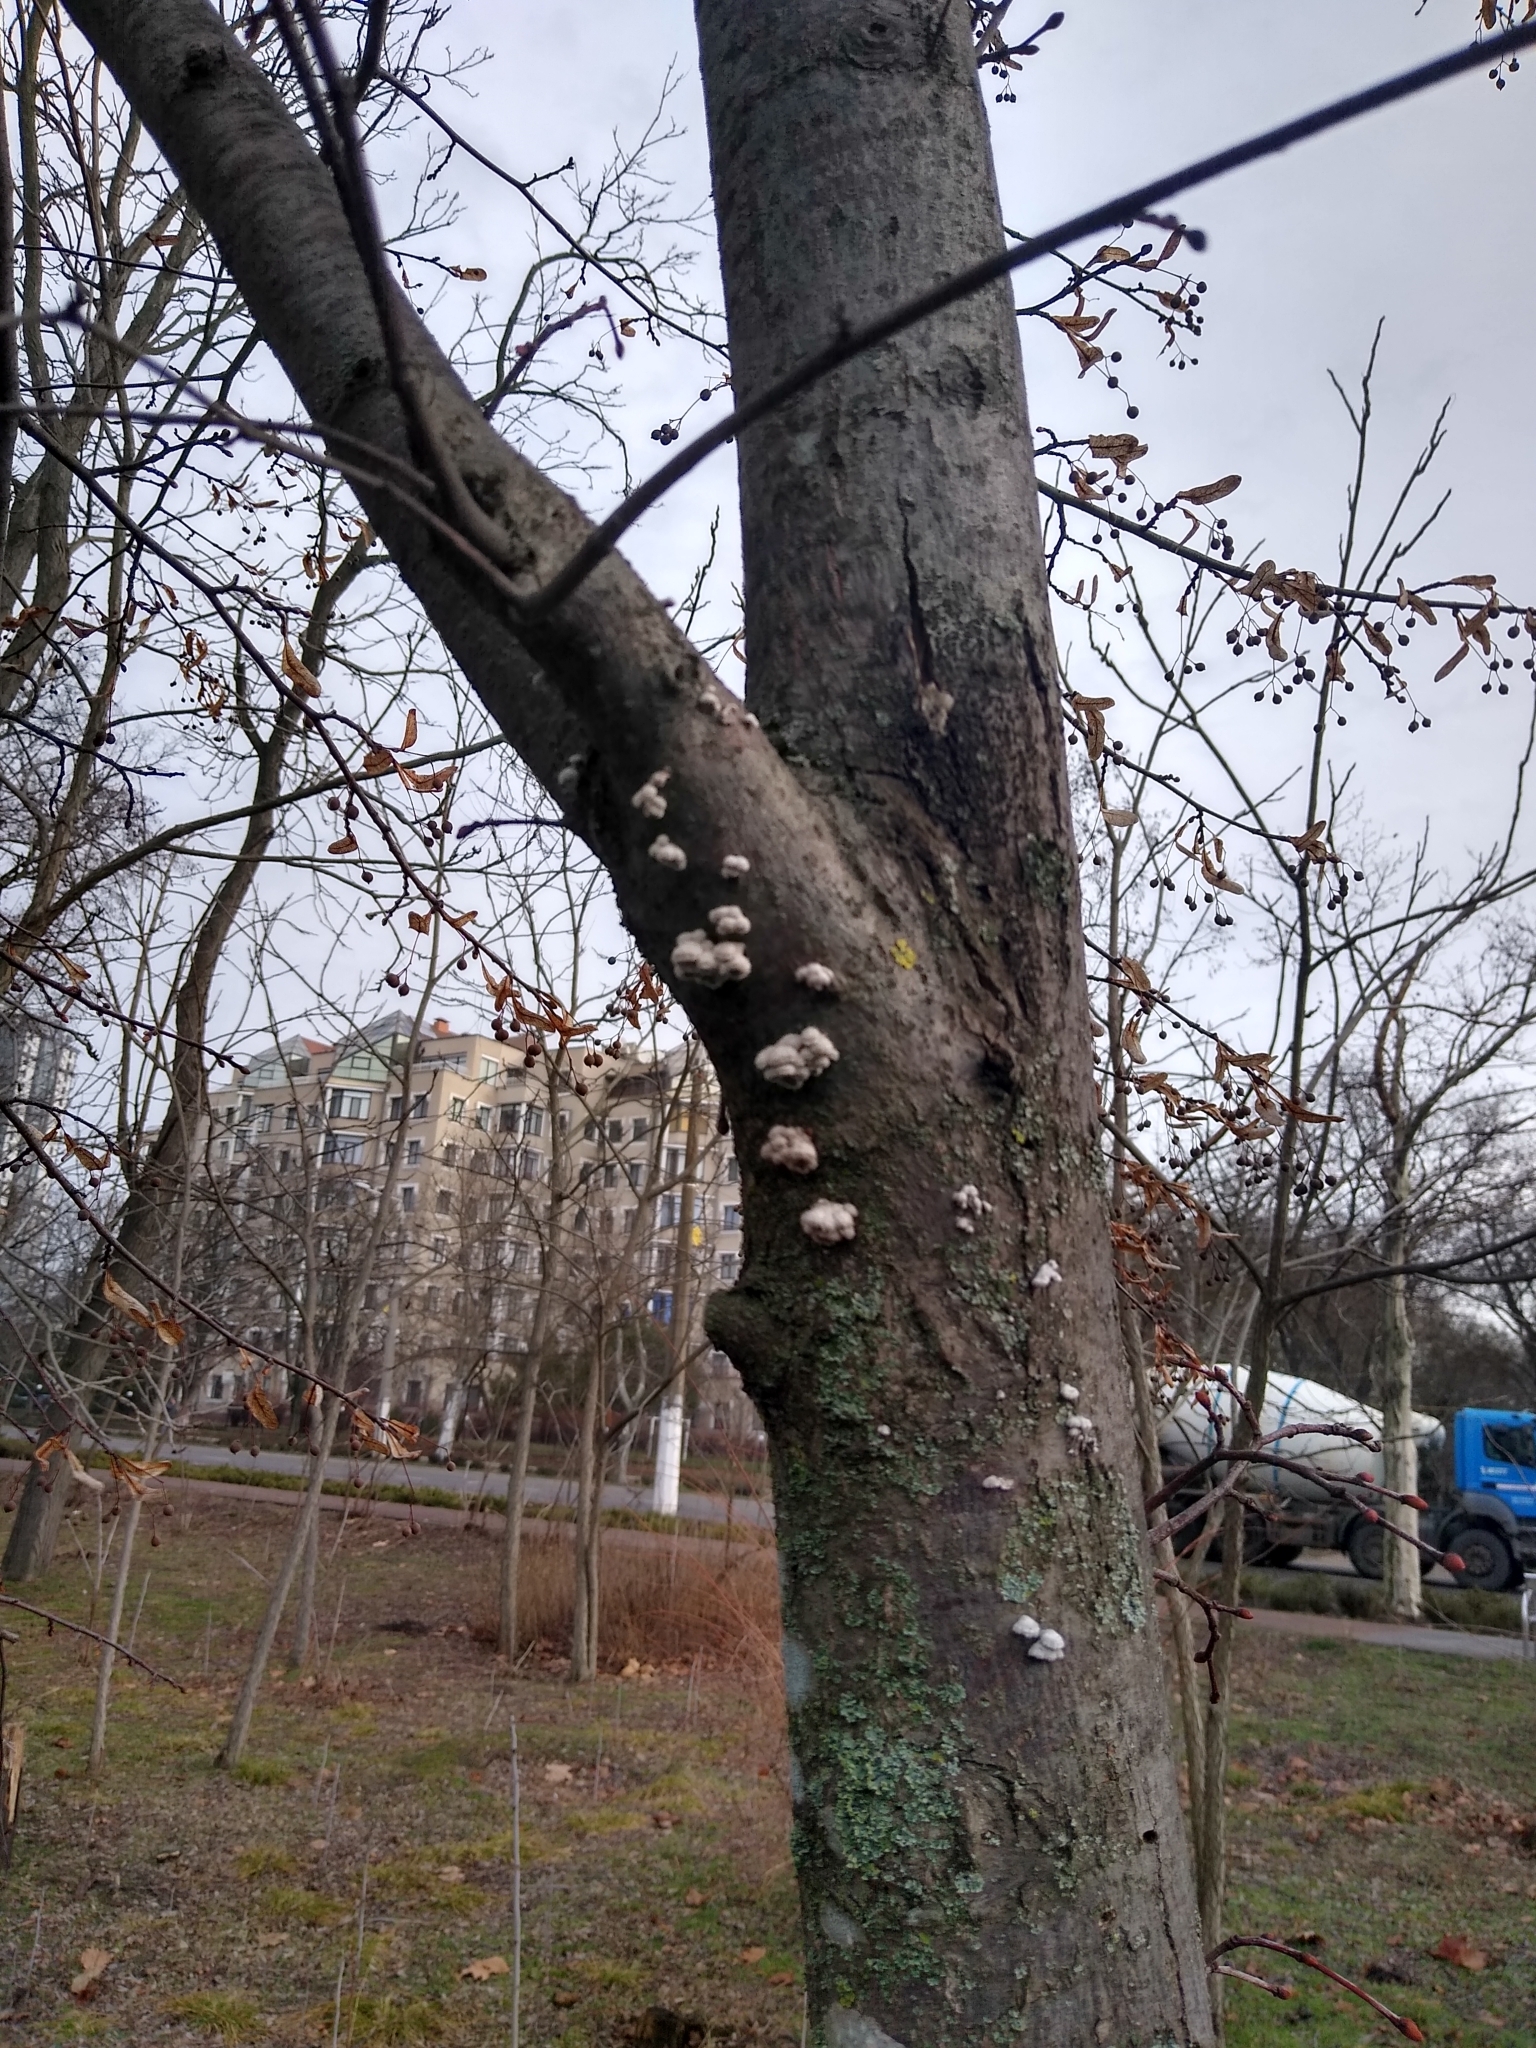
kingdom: Fungi
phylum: Basidiomycota
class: Agaricomycetes
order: Agaricales
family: Schizophyllaceae
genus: Schizophyllum
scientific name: Schizophyllum commune
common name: Common porecrust
